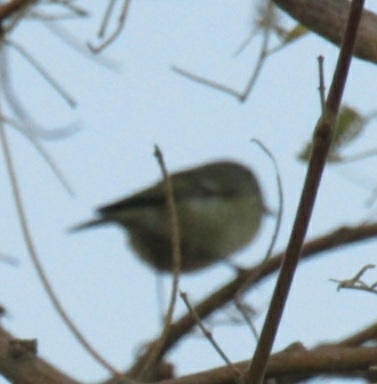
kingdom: Animalia
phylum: Chordata
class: Aves
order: Passeriformes
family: Regulidae
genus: Regulus
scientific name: Regulus calendula
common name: Ruby-crowned kinglet
